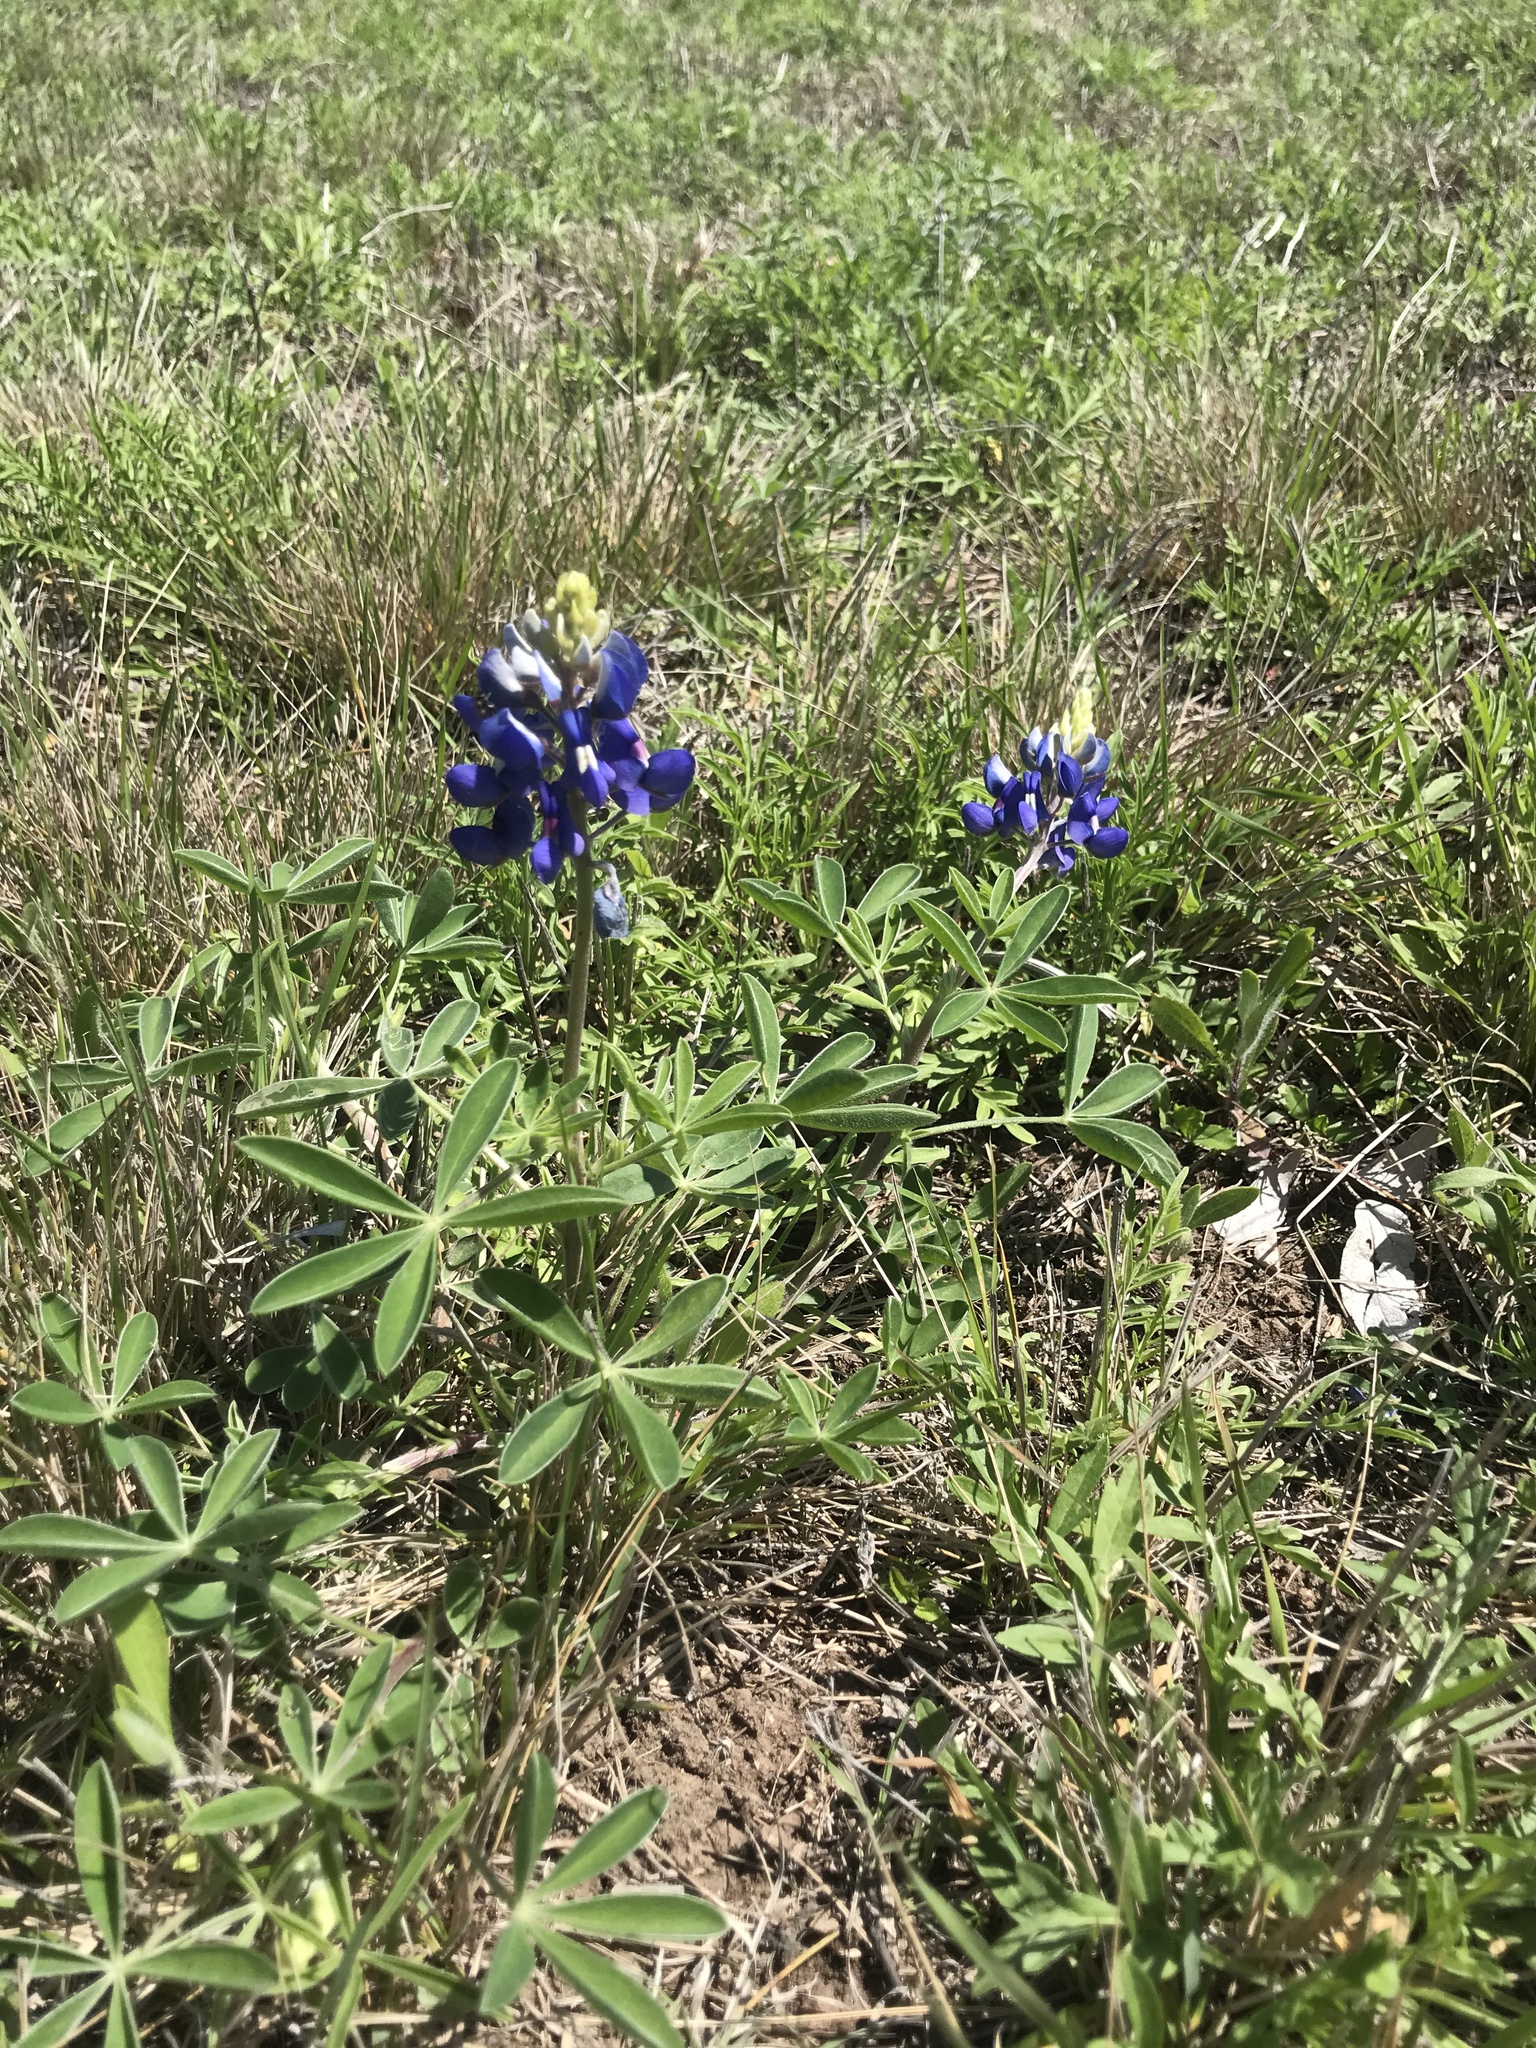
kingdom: Plantae
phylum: Tracheophyta
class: Magnoliopsida
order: Fabales
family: Fabaceae
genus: Lupinus
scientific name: Lupinus texensis
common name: Texas bluebonnet
